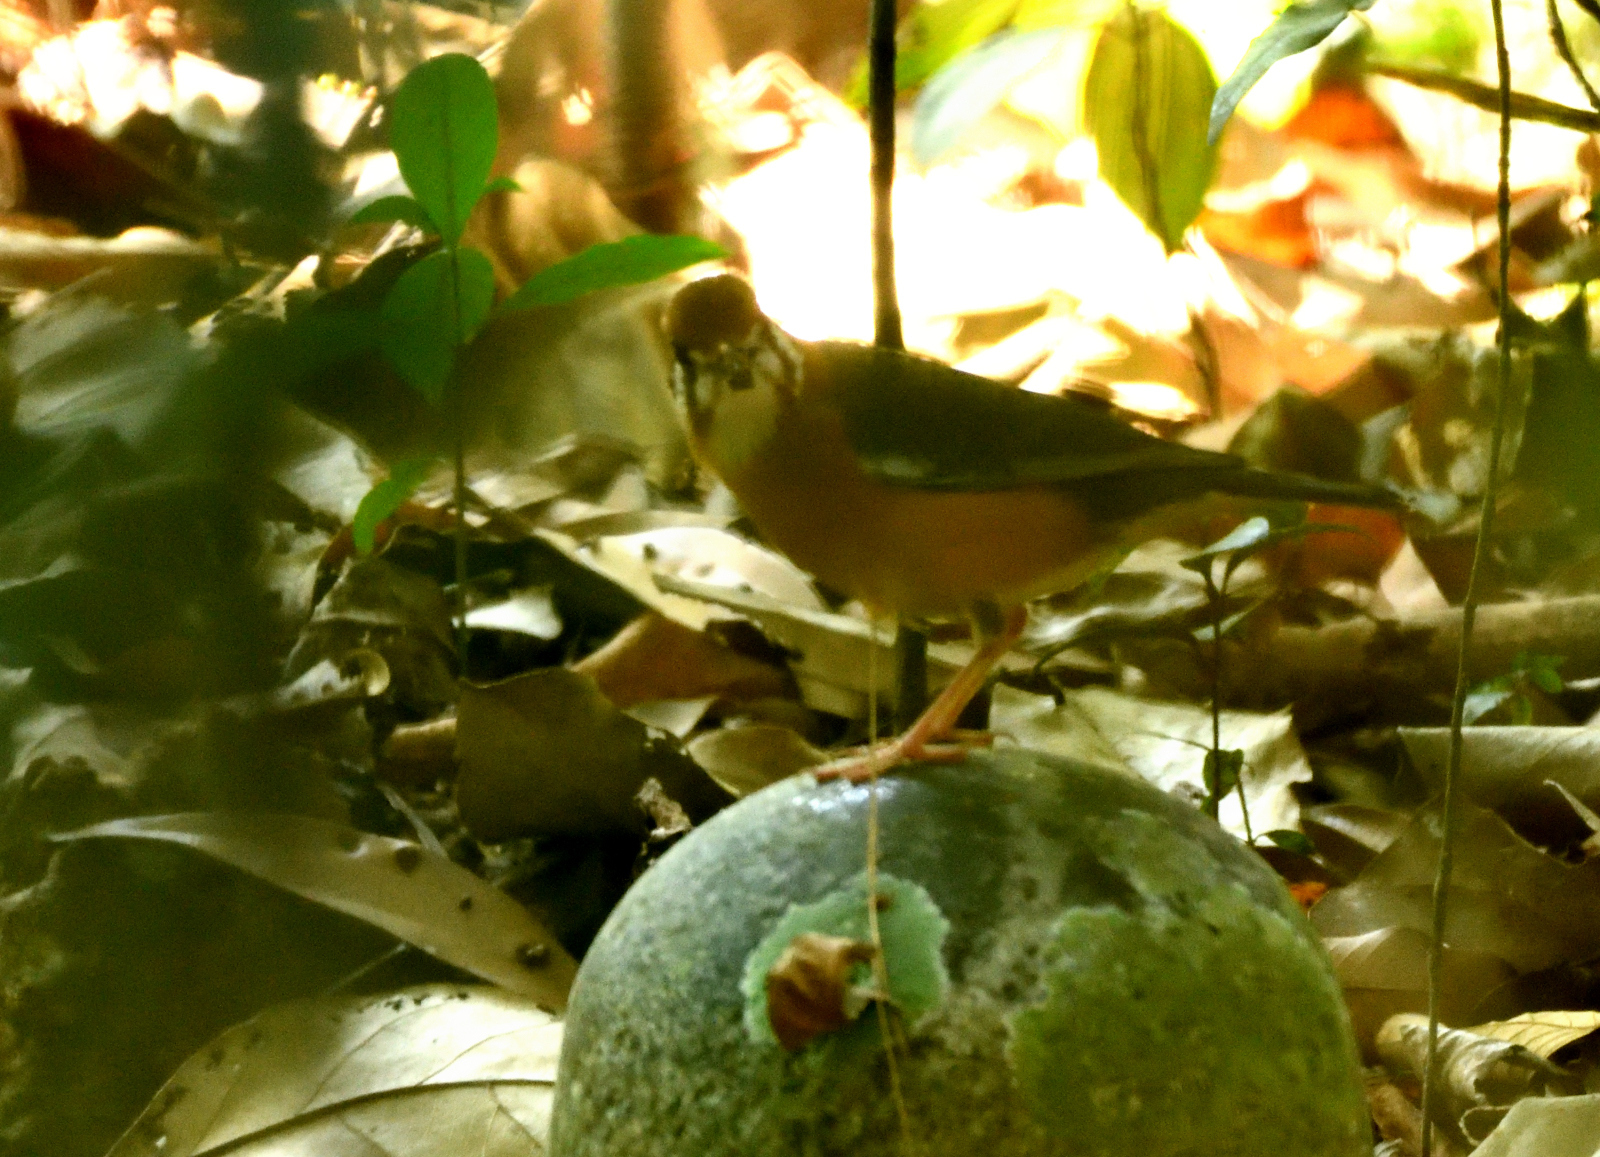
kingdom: Animalia
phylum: Chordata
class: Aves
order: Passeriformes
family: Turdidae
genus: Geokichla
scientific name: Geokichla citrina
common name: Orange-headed thrush
